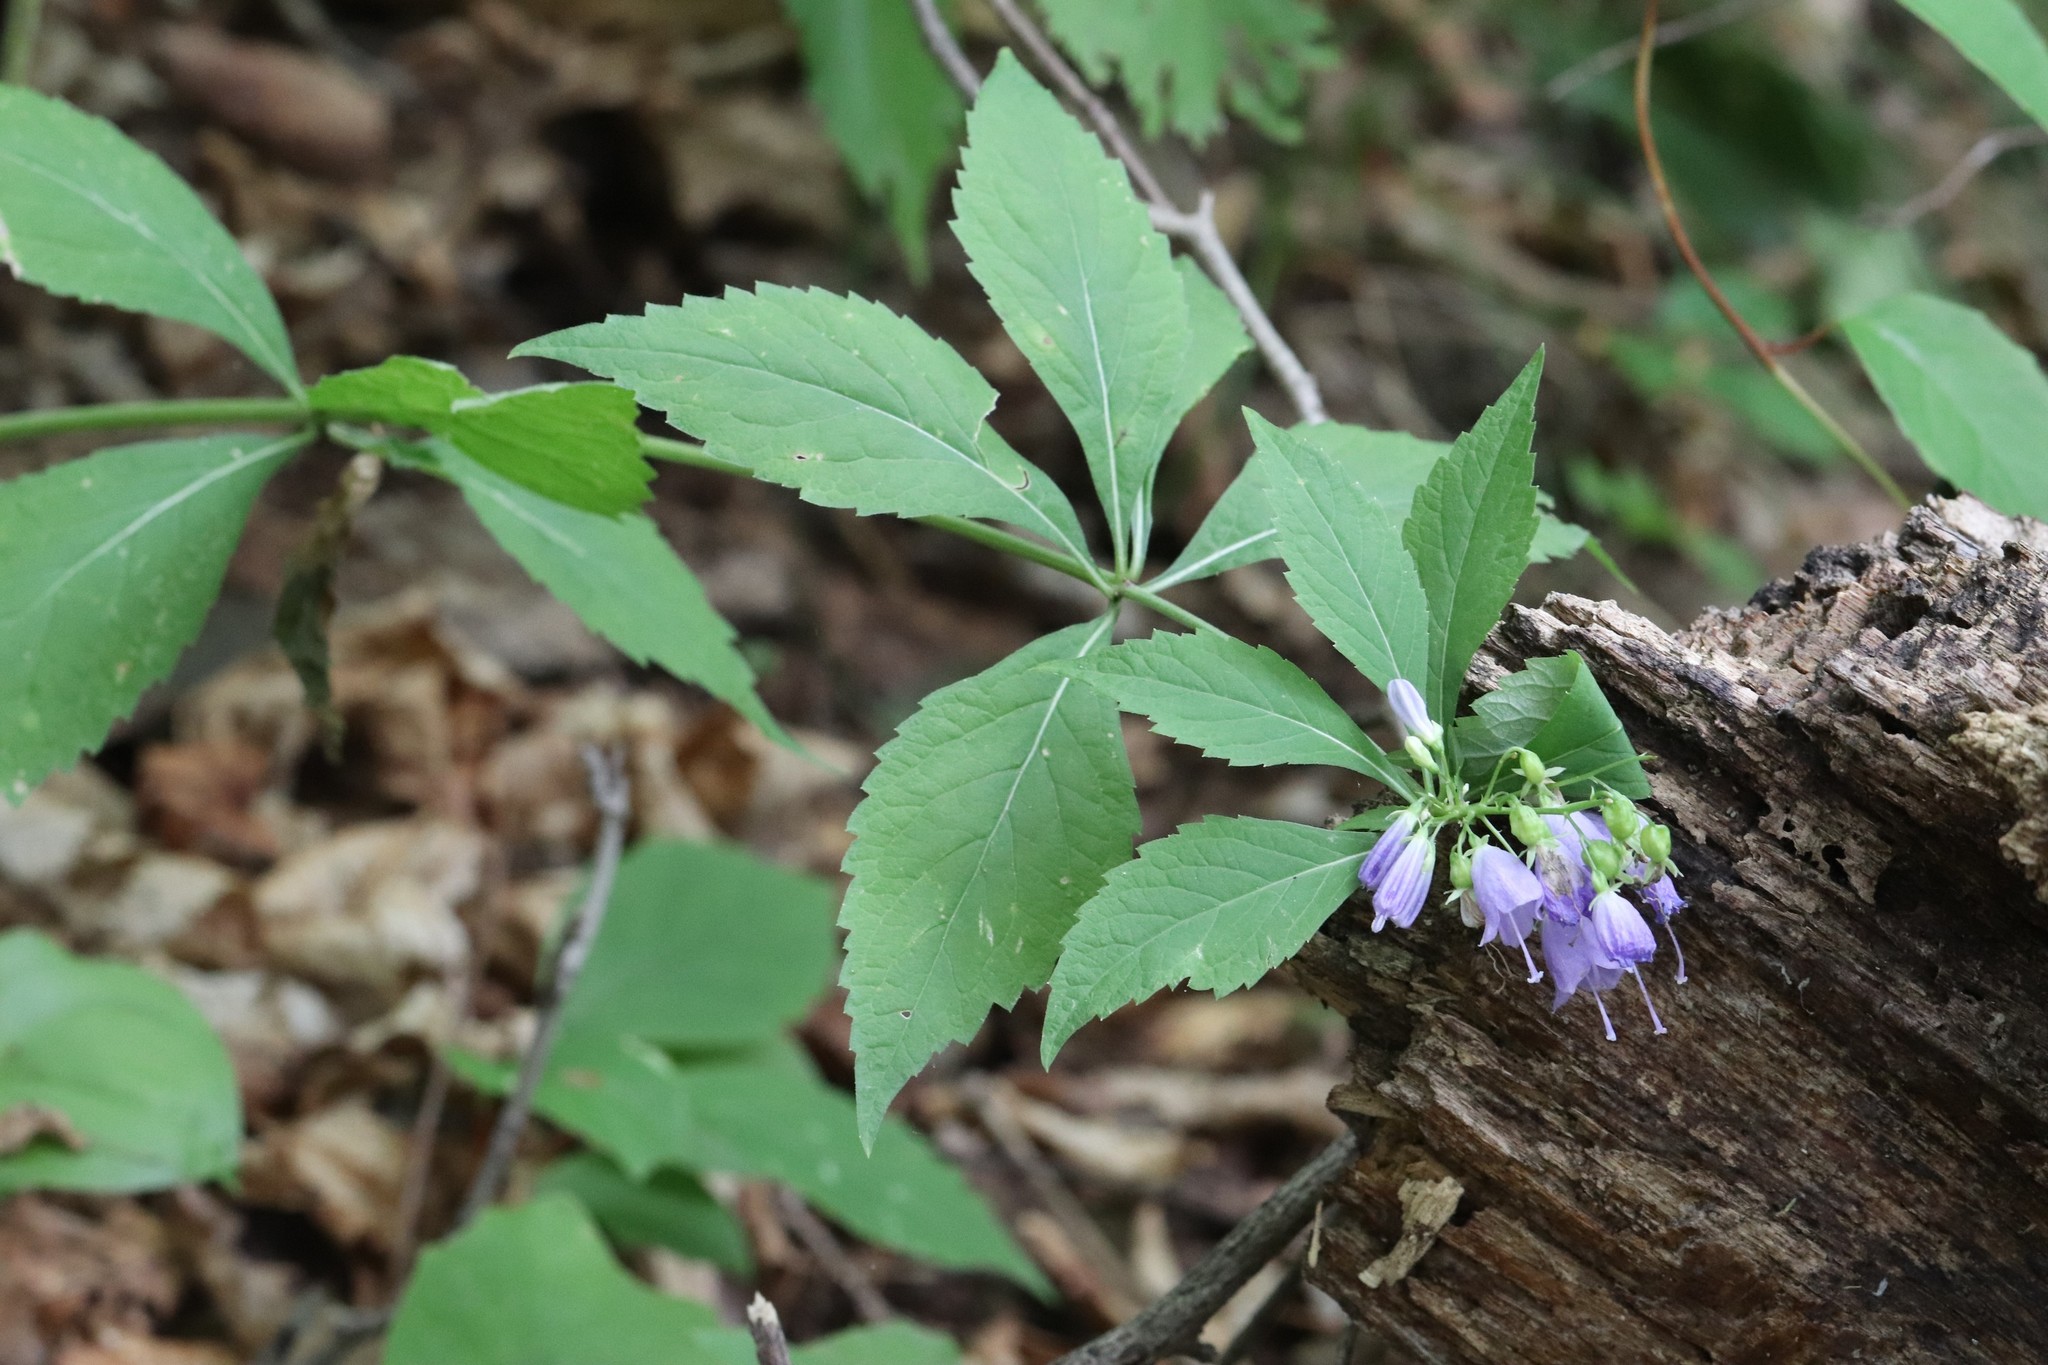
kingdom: Plantae
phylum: Tracheophyta
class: Magnoliopsida
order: Asterales
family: Campanulaceae
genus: Adenophora
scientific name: Adenophora pereskiifolia
